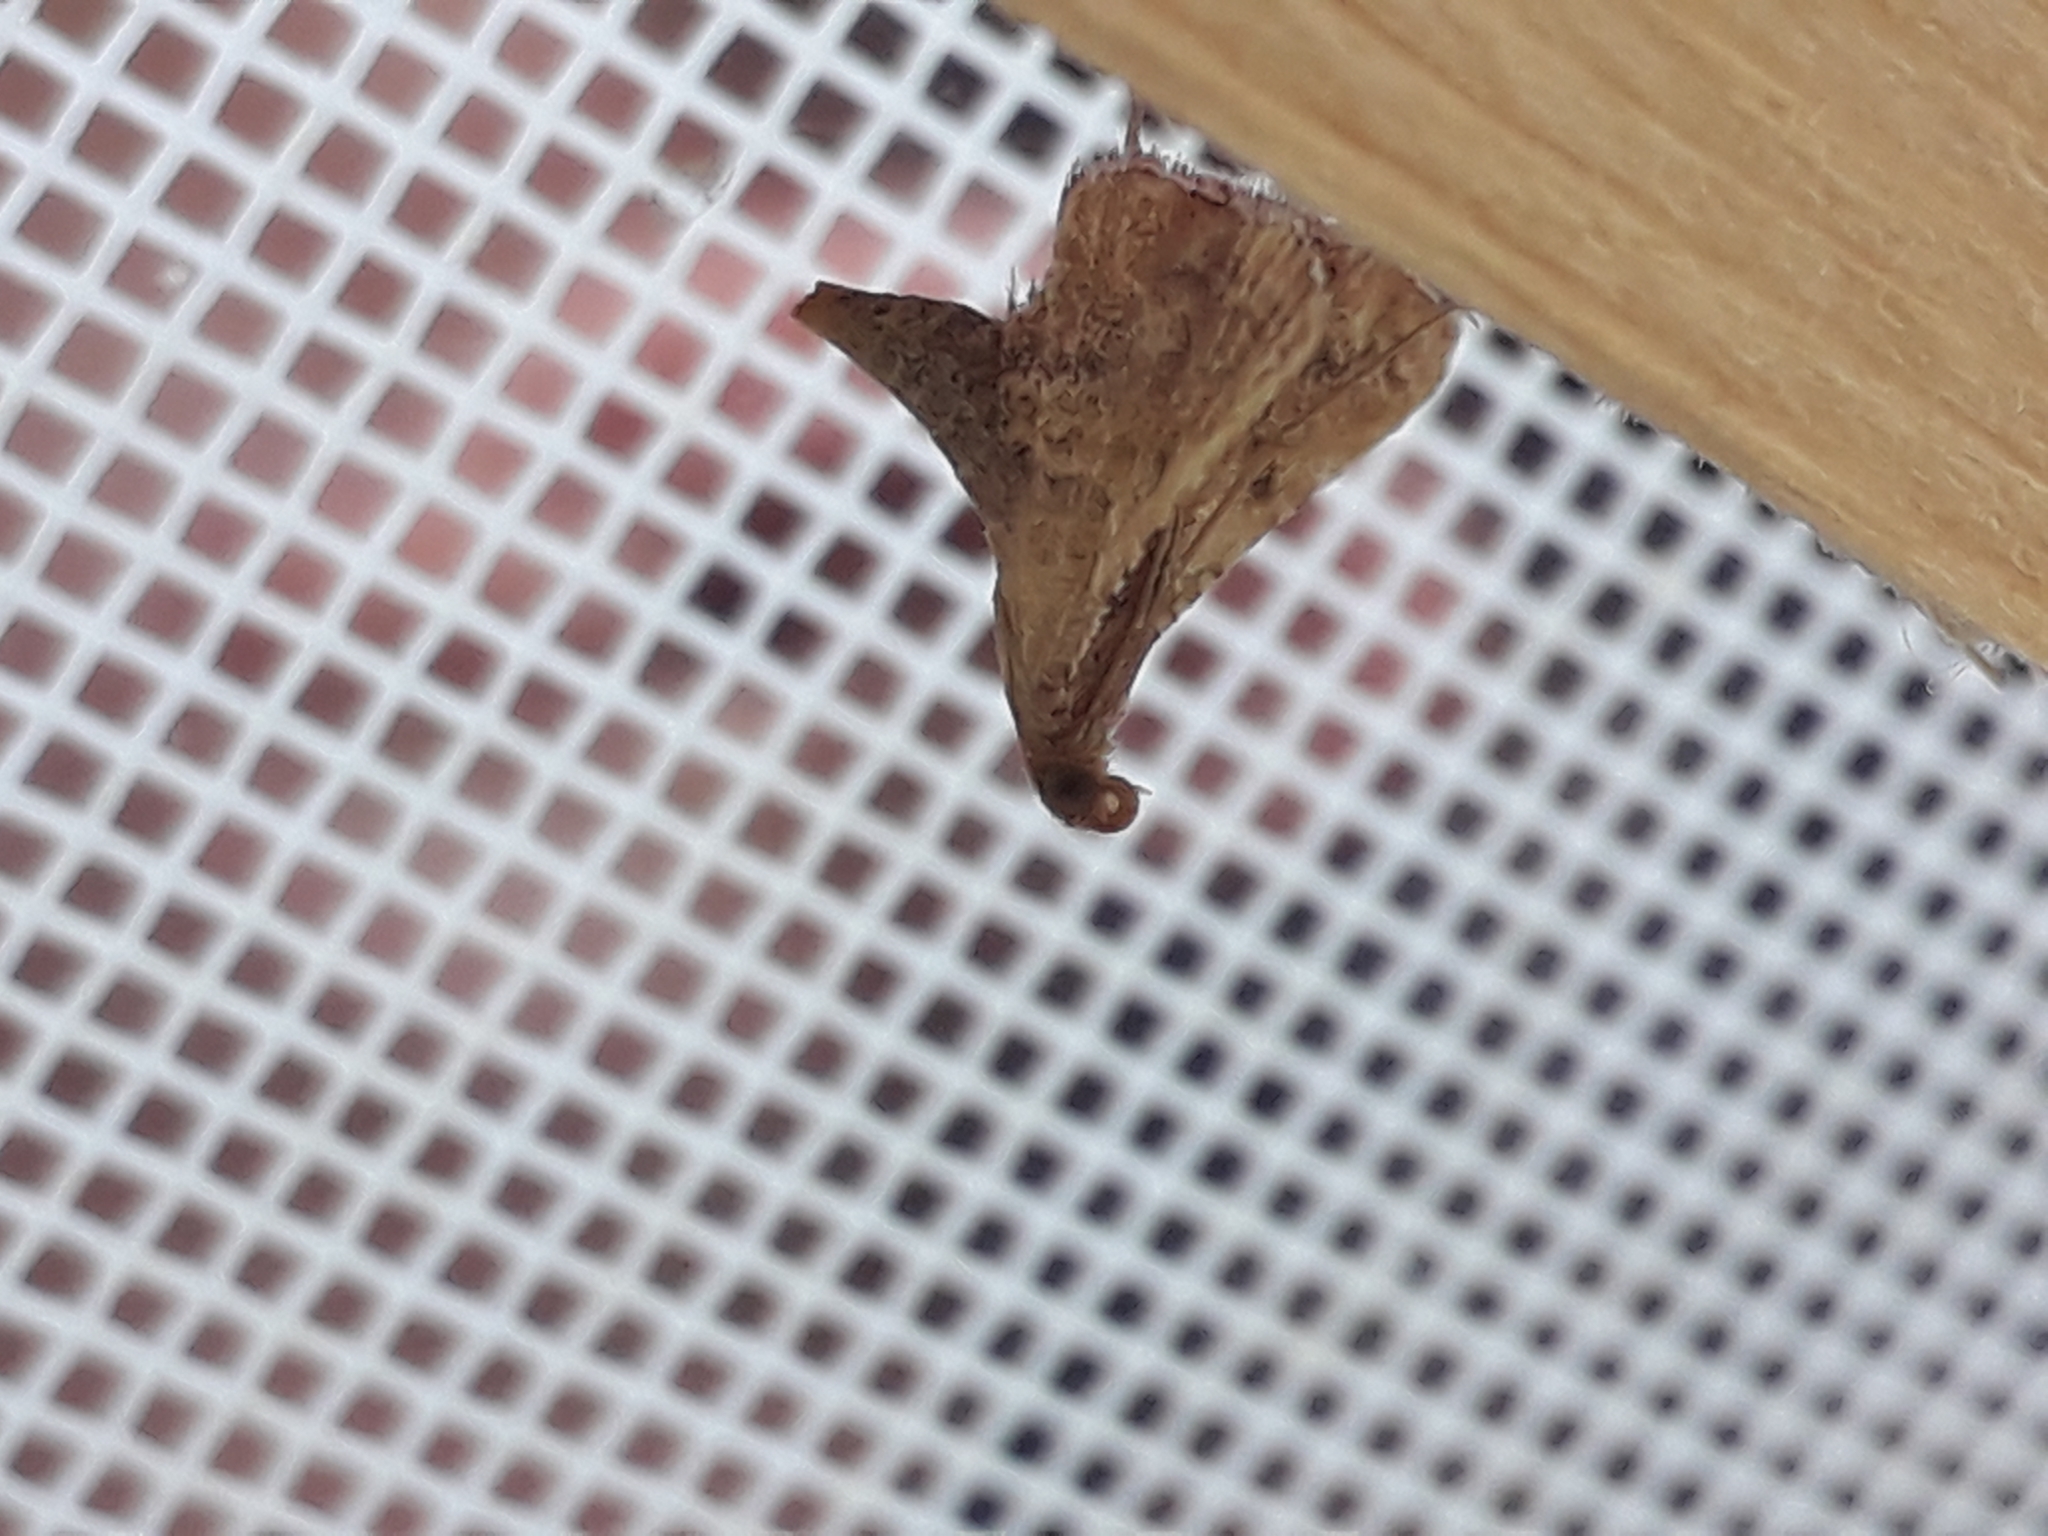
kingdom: Animalia
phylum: Arthropoda
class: Insecta
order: Lepidoptera
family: Pyralidae
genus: Endotricha
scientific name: Endotricha flammealis
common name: Rosy tabby
